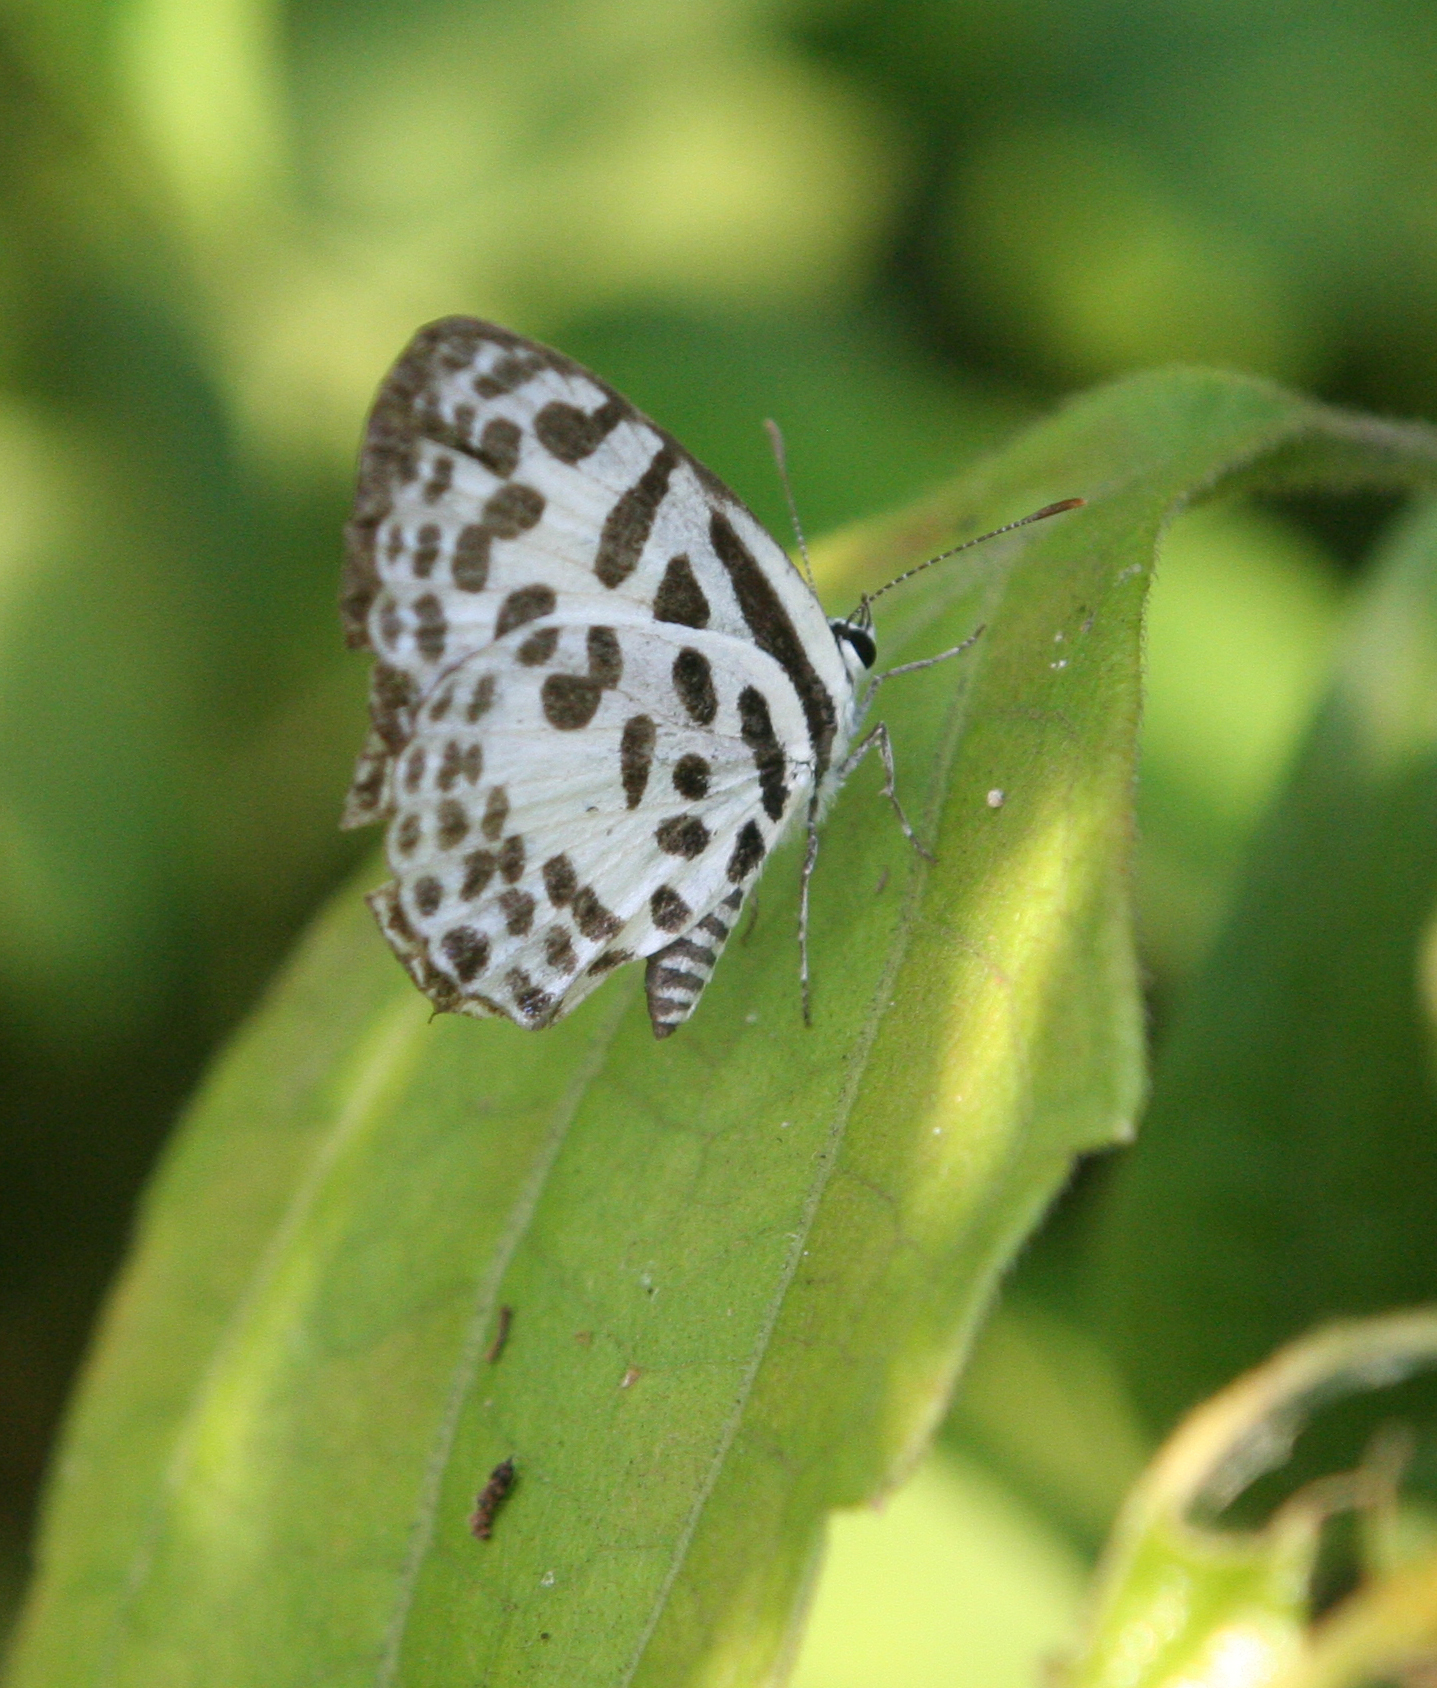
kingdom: Animalia
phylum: Arthropoda
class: Insecta
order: Lepidoptera
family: Lycaenidae
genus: Castalius
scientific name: Castalius rosimon
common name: Common pierrot
